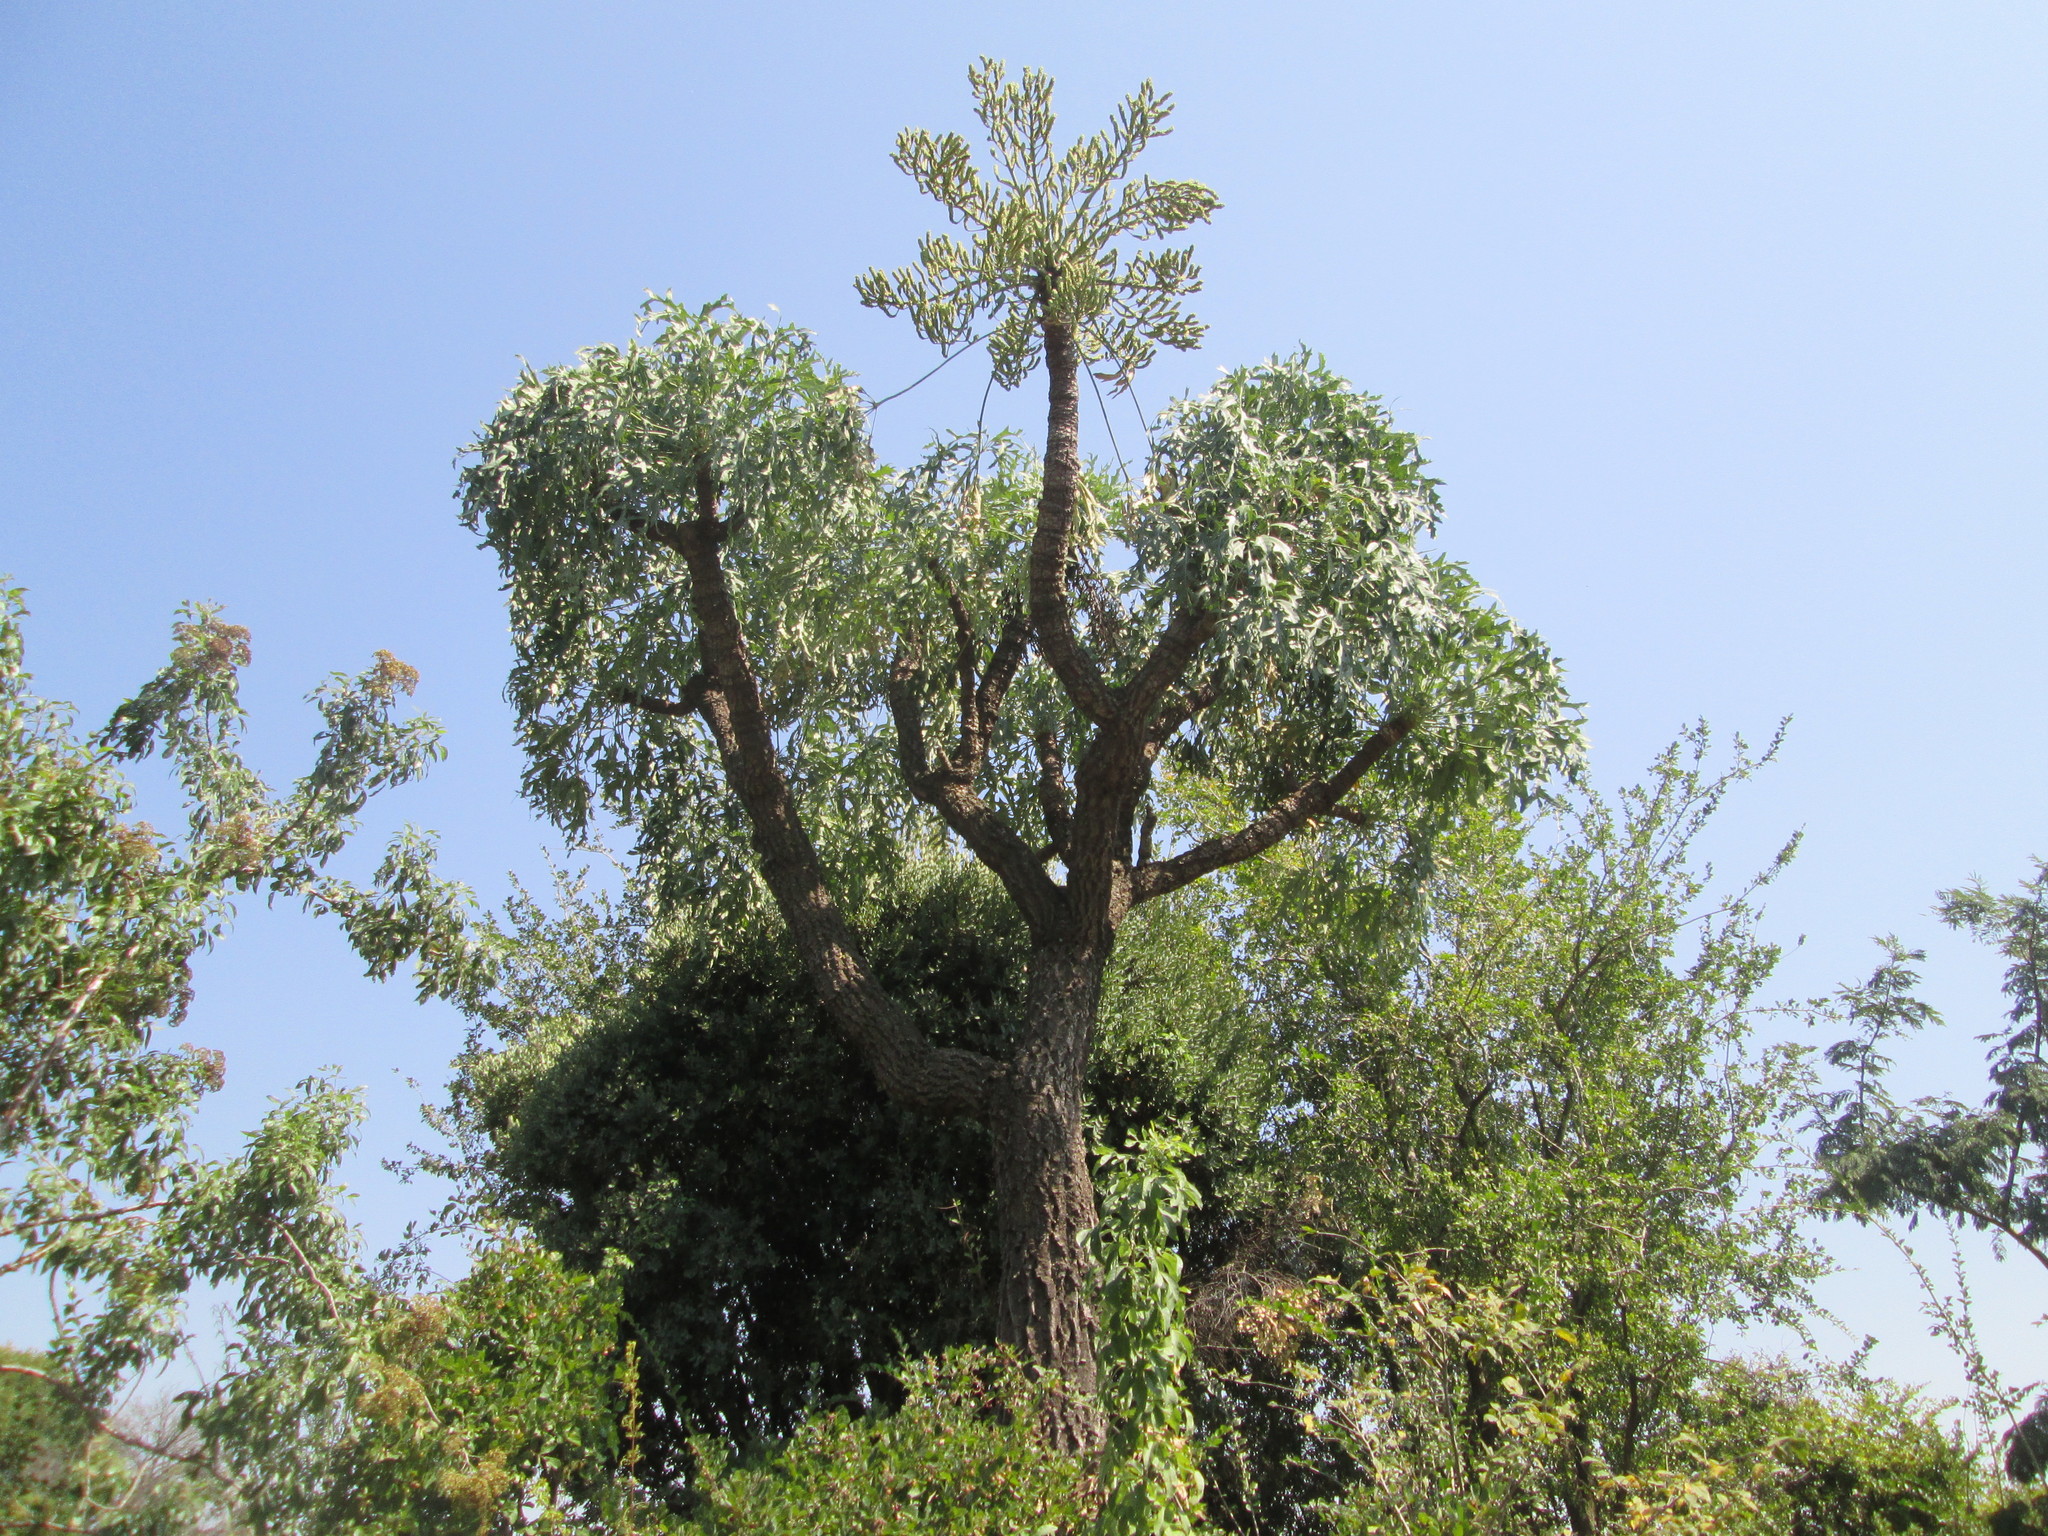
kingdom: Plantae
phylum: Tracheophyta
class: Magnoliopsida
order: Apiales
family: Araliaceae
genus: Cussonia
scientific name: Cussonia paniculata
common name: Cabbagetree
